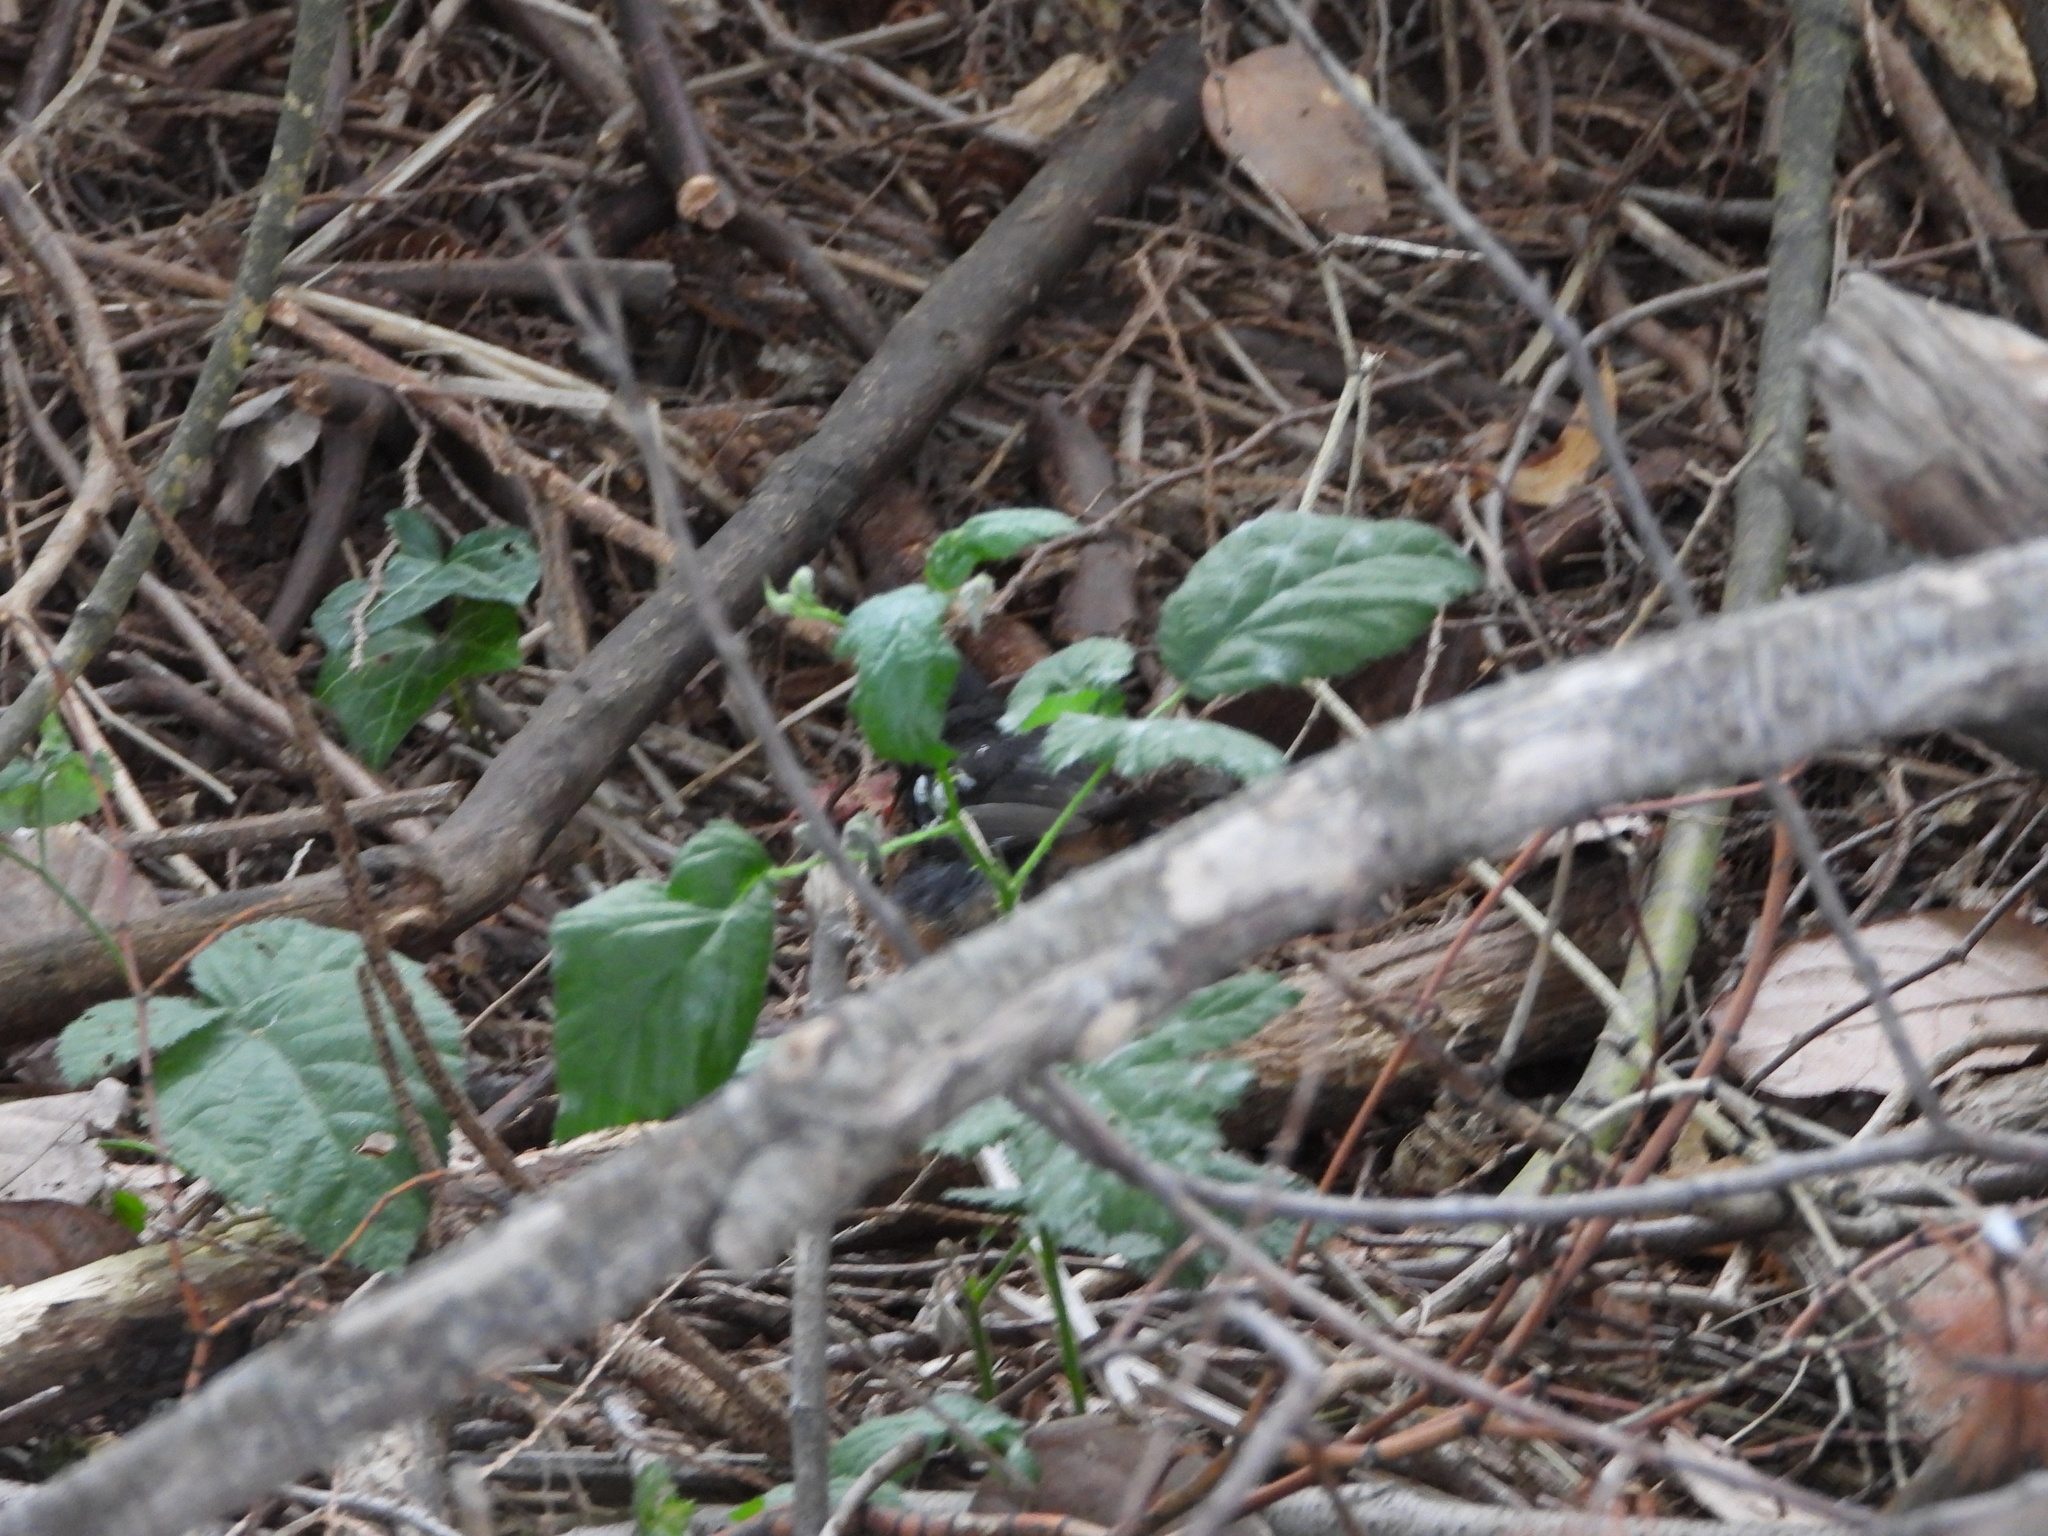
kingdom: Animalia
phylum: Chordata
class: Aves
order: Passeriformes
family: Passerellidae
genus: Pipilo
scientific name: Pipilo maculatus
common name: Spotted towhee
